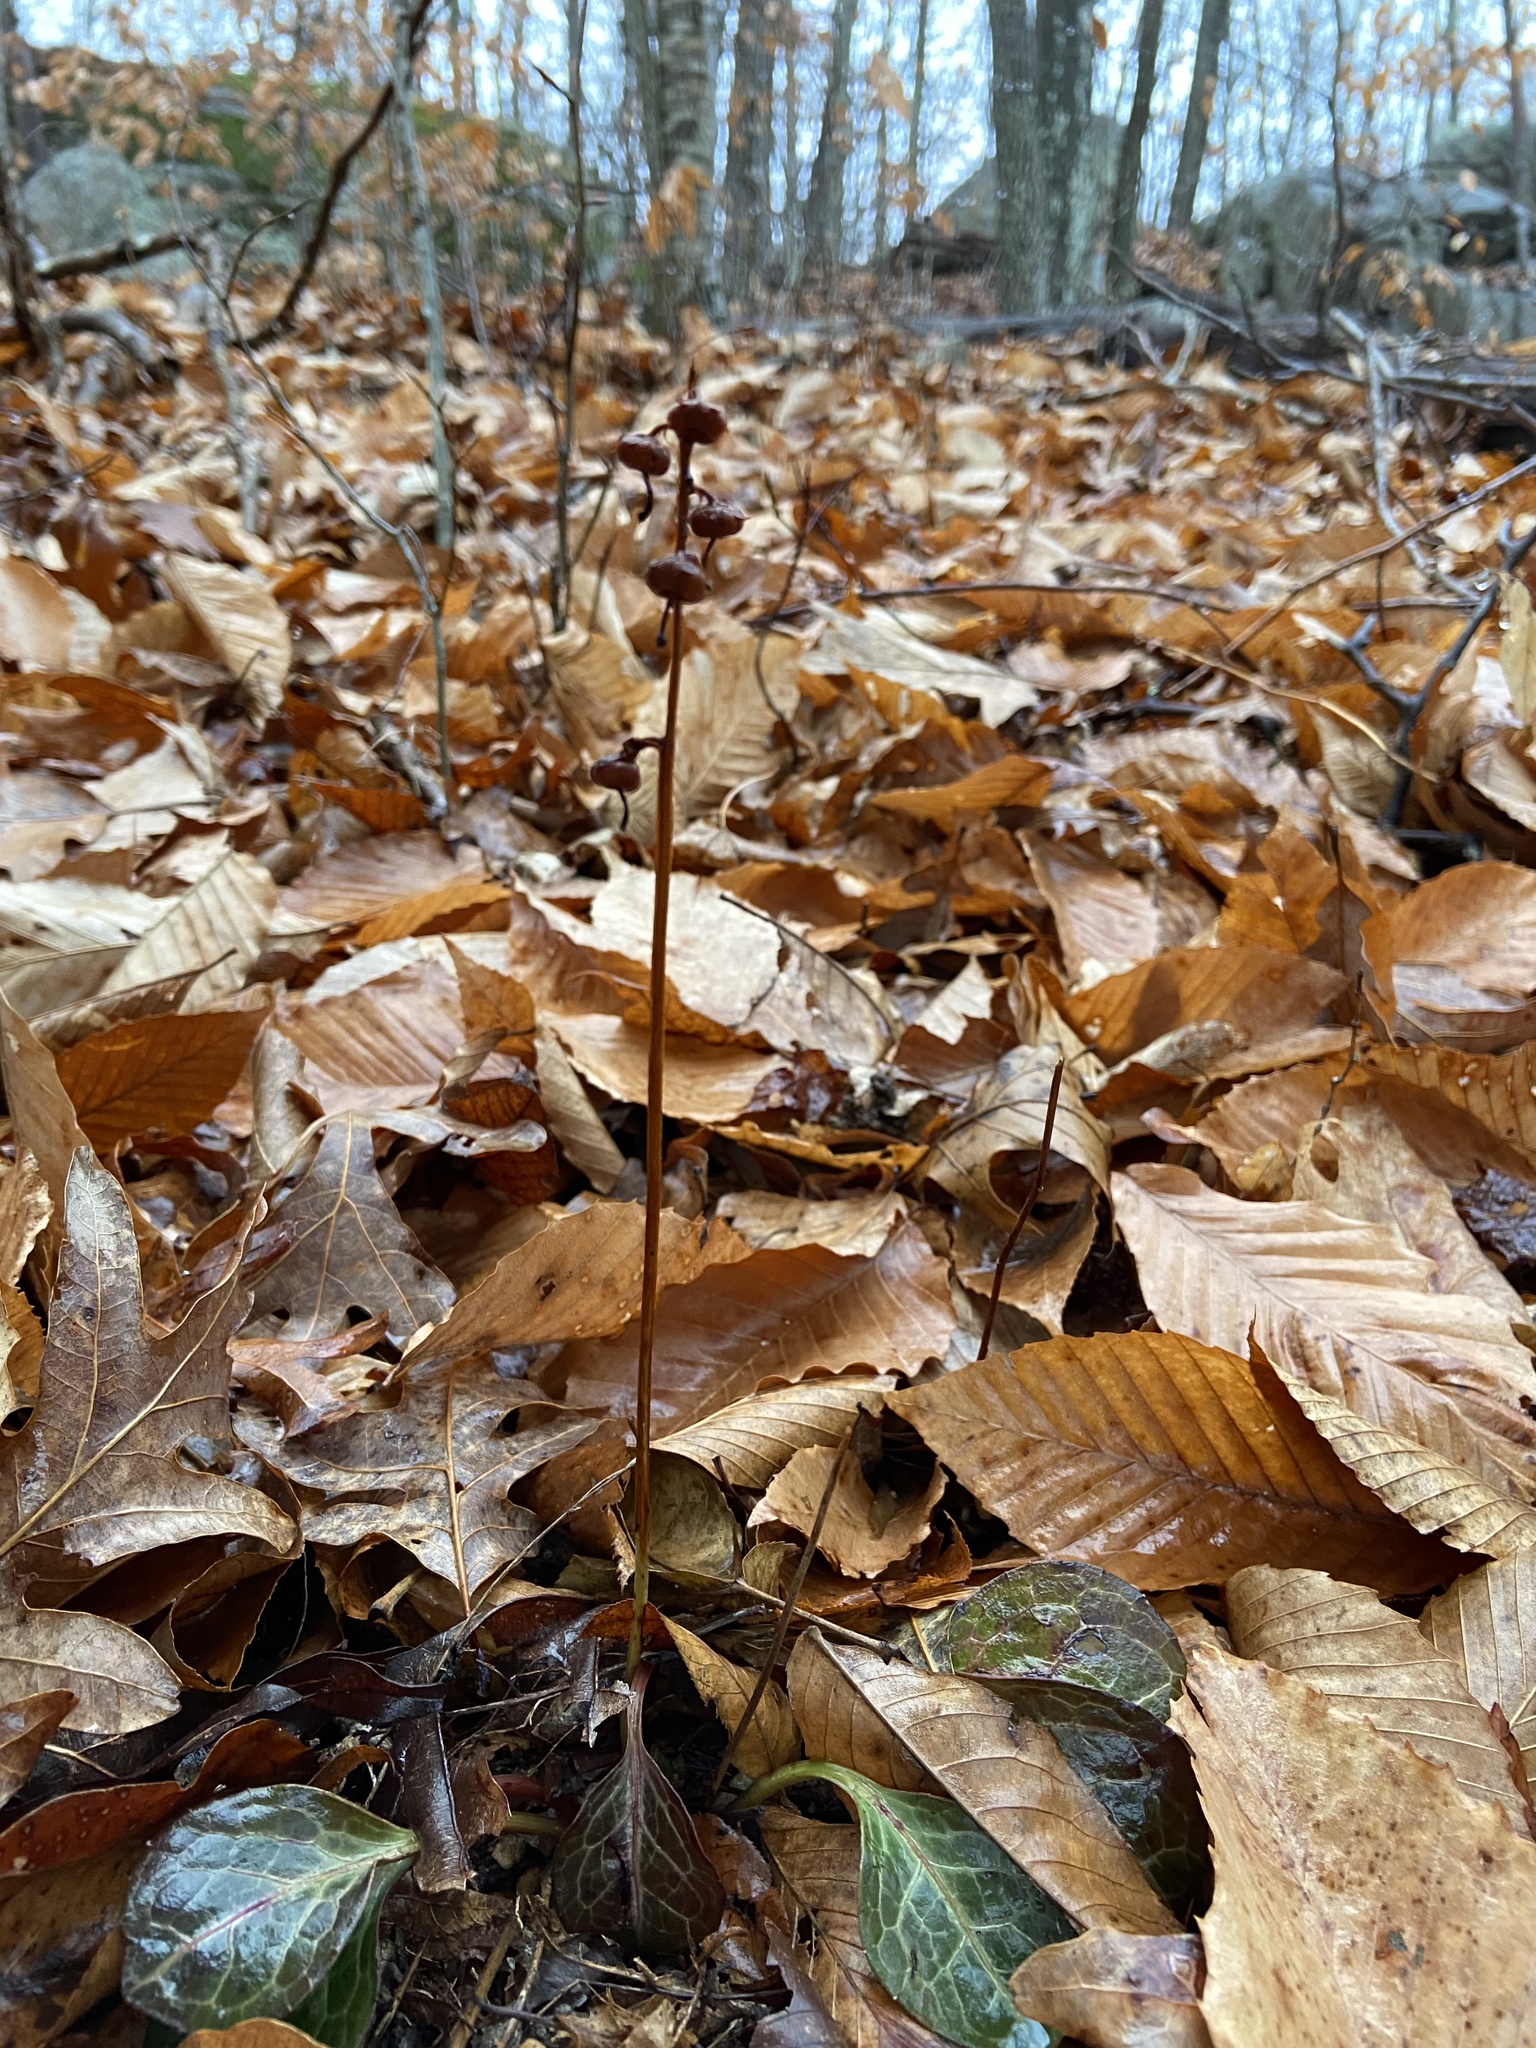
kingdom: Plantae
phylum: Tracheophyta
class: Magnoliopsida
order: Ericales
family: Ericaceae
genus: Pyrola
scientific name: Pyrola americana
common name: American wintergreen
